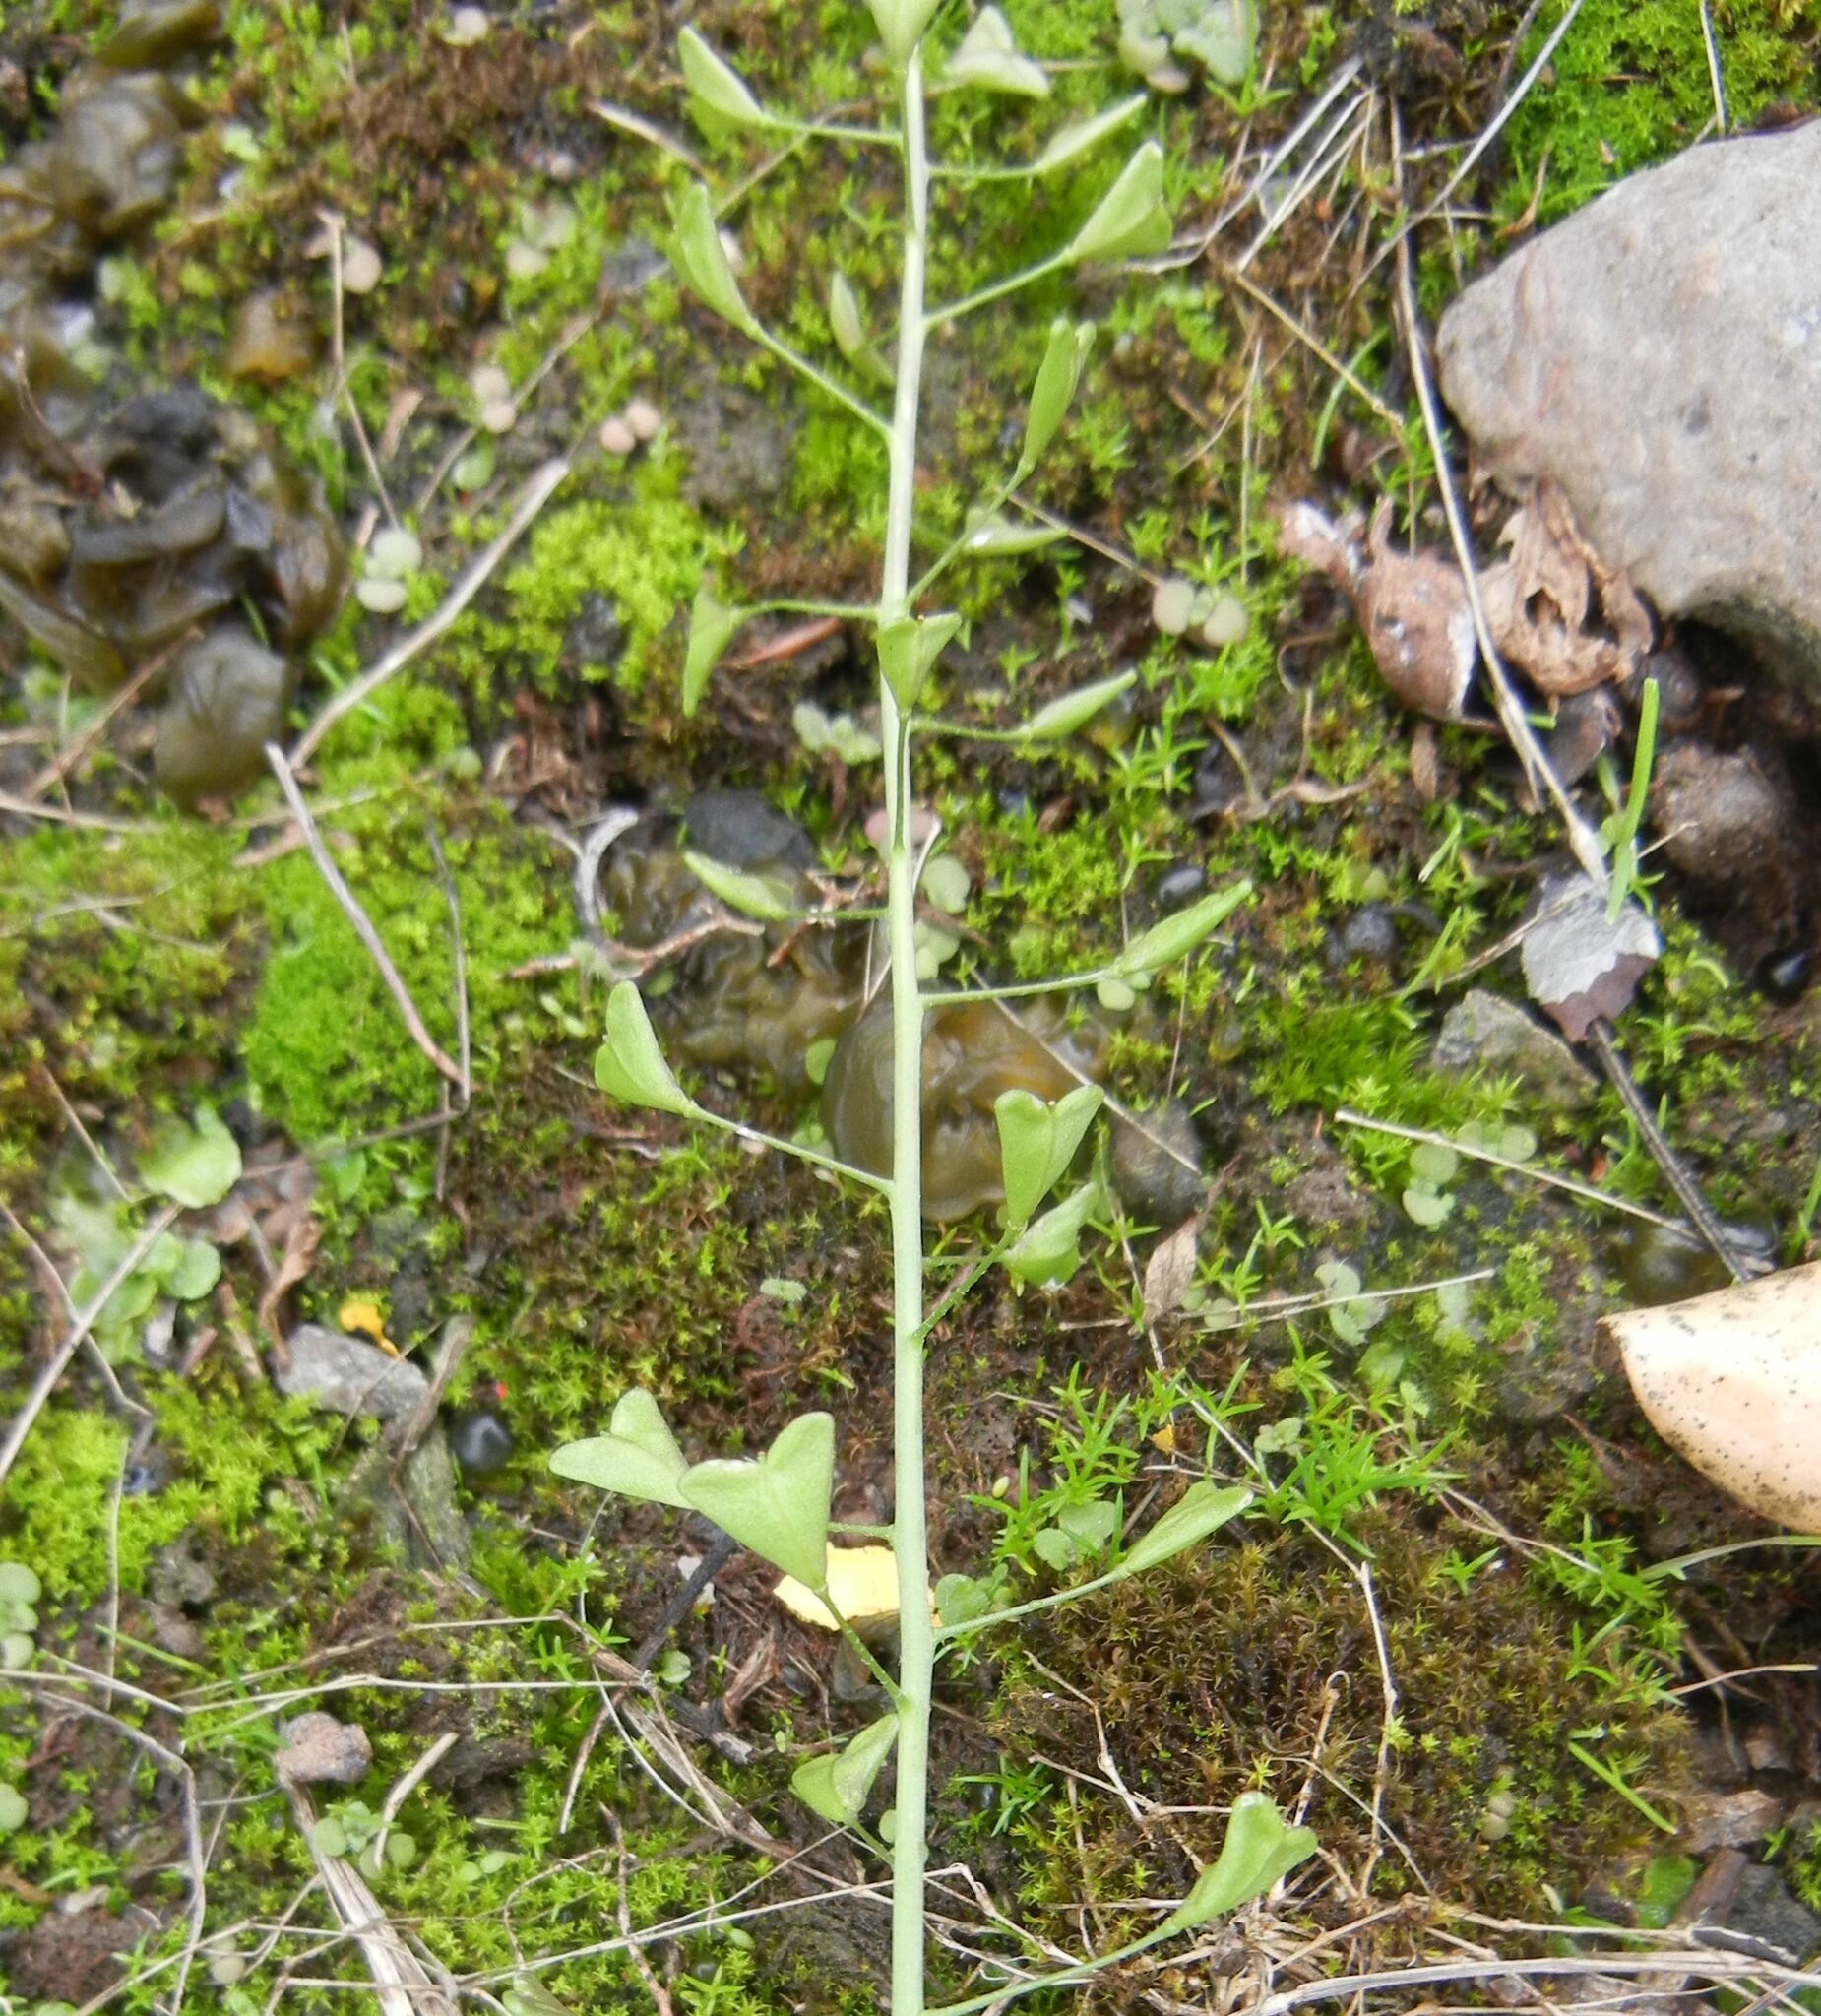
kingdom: Plantae
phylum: Tracheophyta
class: Magnoliopsida
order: Brassicales
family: Brassicaceae
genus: Capsella
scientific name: Capsella bursa-pastoris
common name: Shepherd's purse
